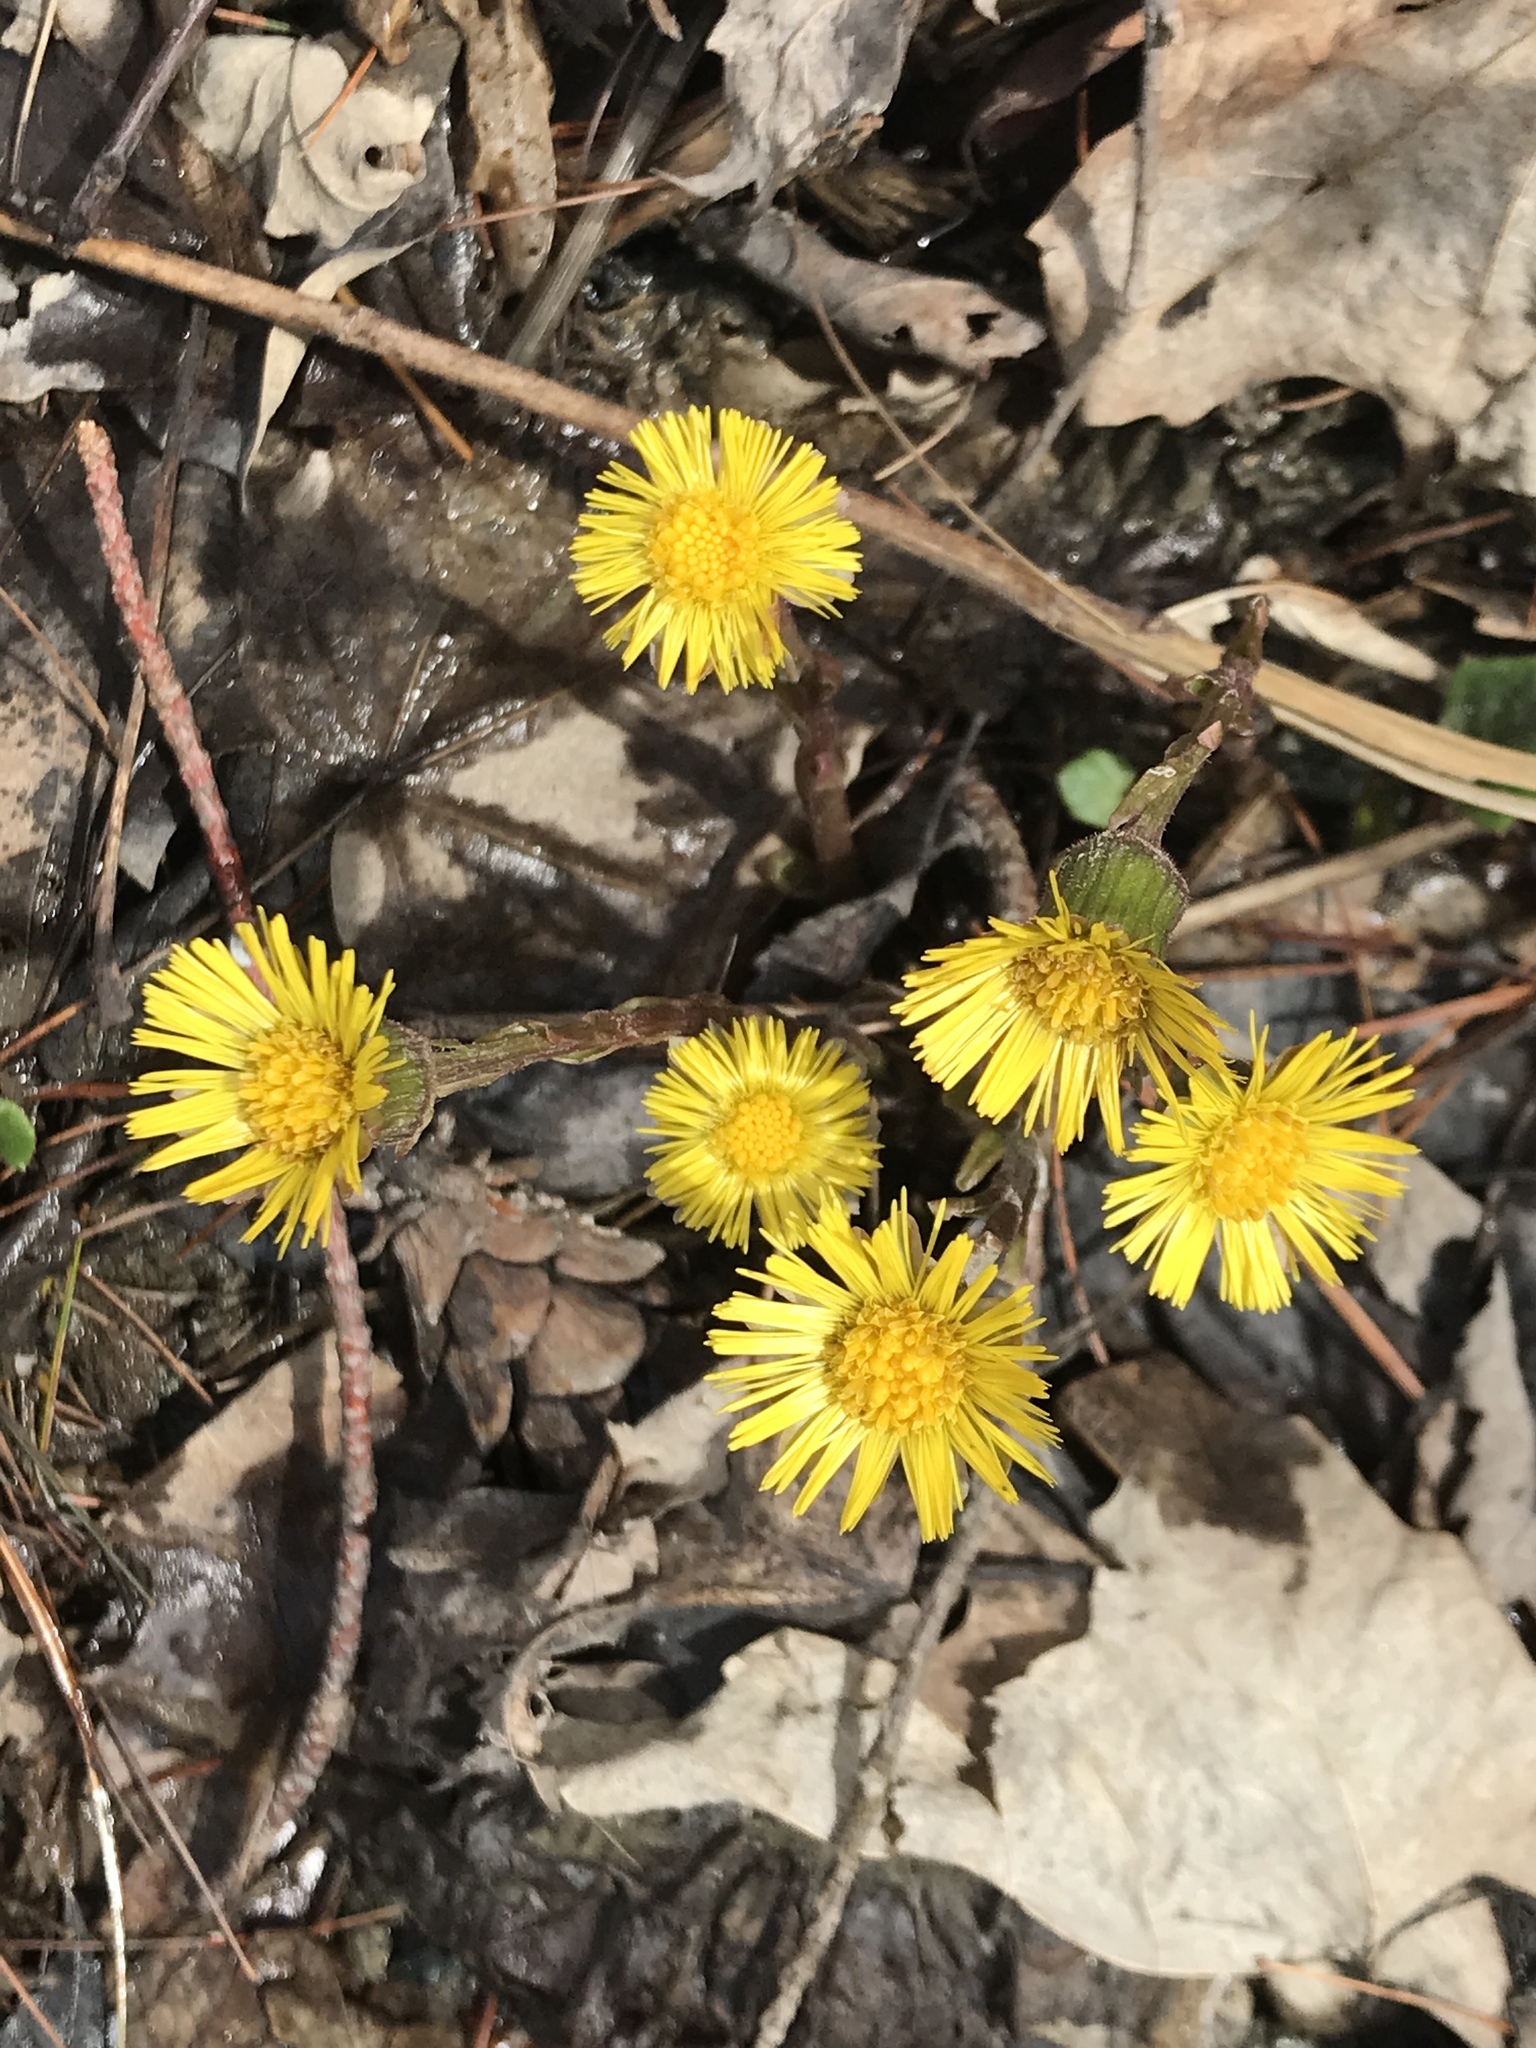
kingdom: Plantae
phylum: Tracheophyta
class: Magnoliopsida
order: Asterales
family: Asteraceae
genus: Tussilago
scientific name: Tussilago farfara
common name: Coltsfoot
